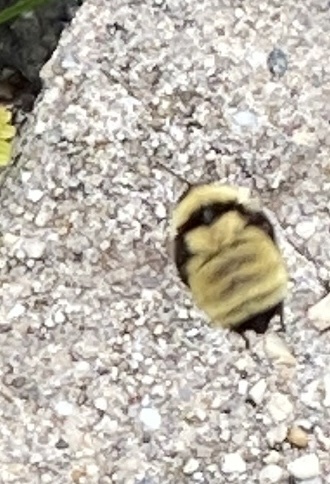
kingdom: Animalia
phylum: Arthropoda
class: Insecta
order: Hymenoptera
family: Apidae
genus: Bombus
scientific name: Bombus fervidus
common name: Yellow bumble bee
